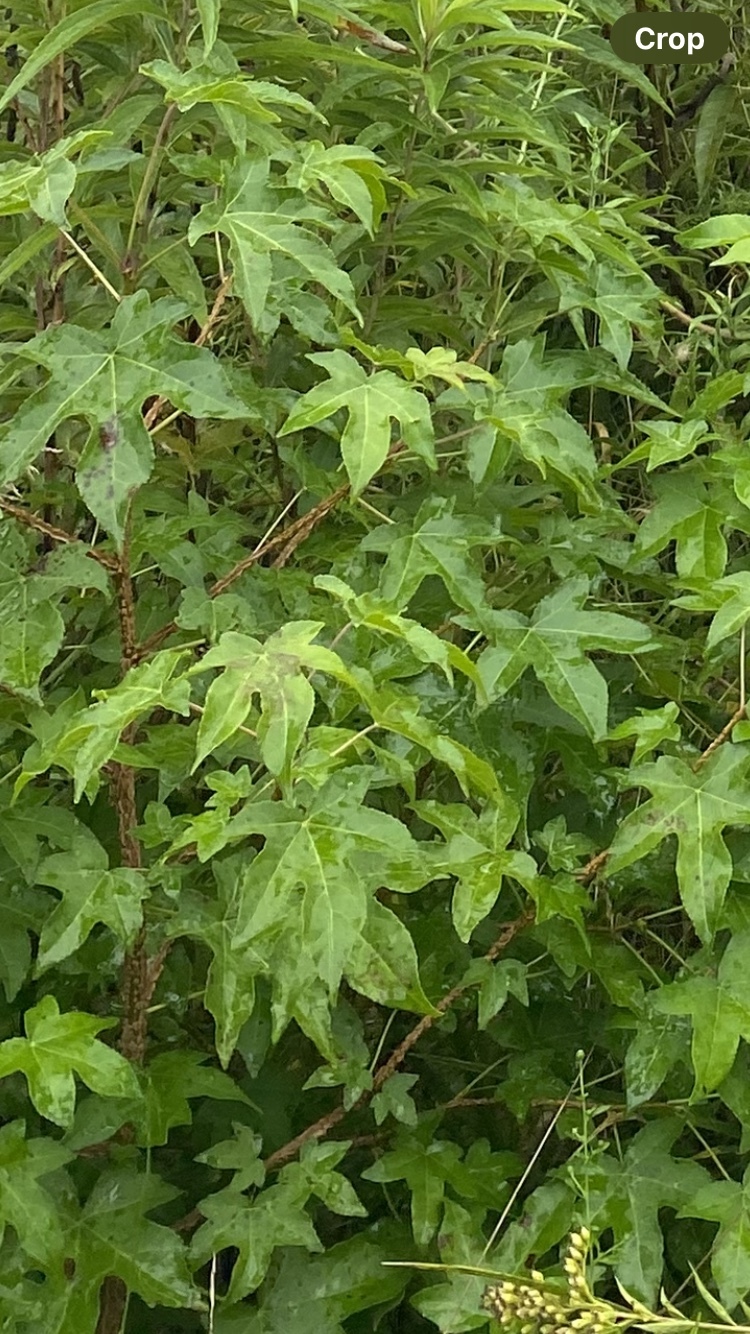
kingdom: Plantae
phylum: Tracheophyta
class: Magnoliopsida
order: Saxifragales
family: Altingiaceae
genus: Liquidambar
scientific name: Liquidambar styraciflua
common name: Sweet gum
